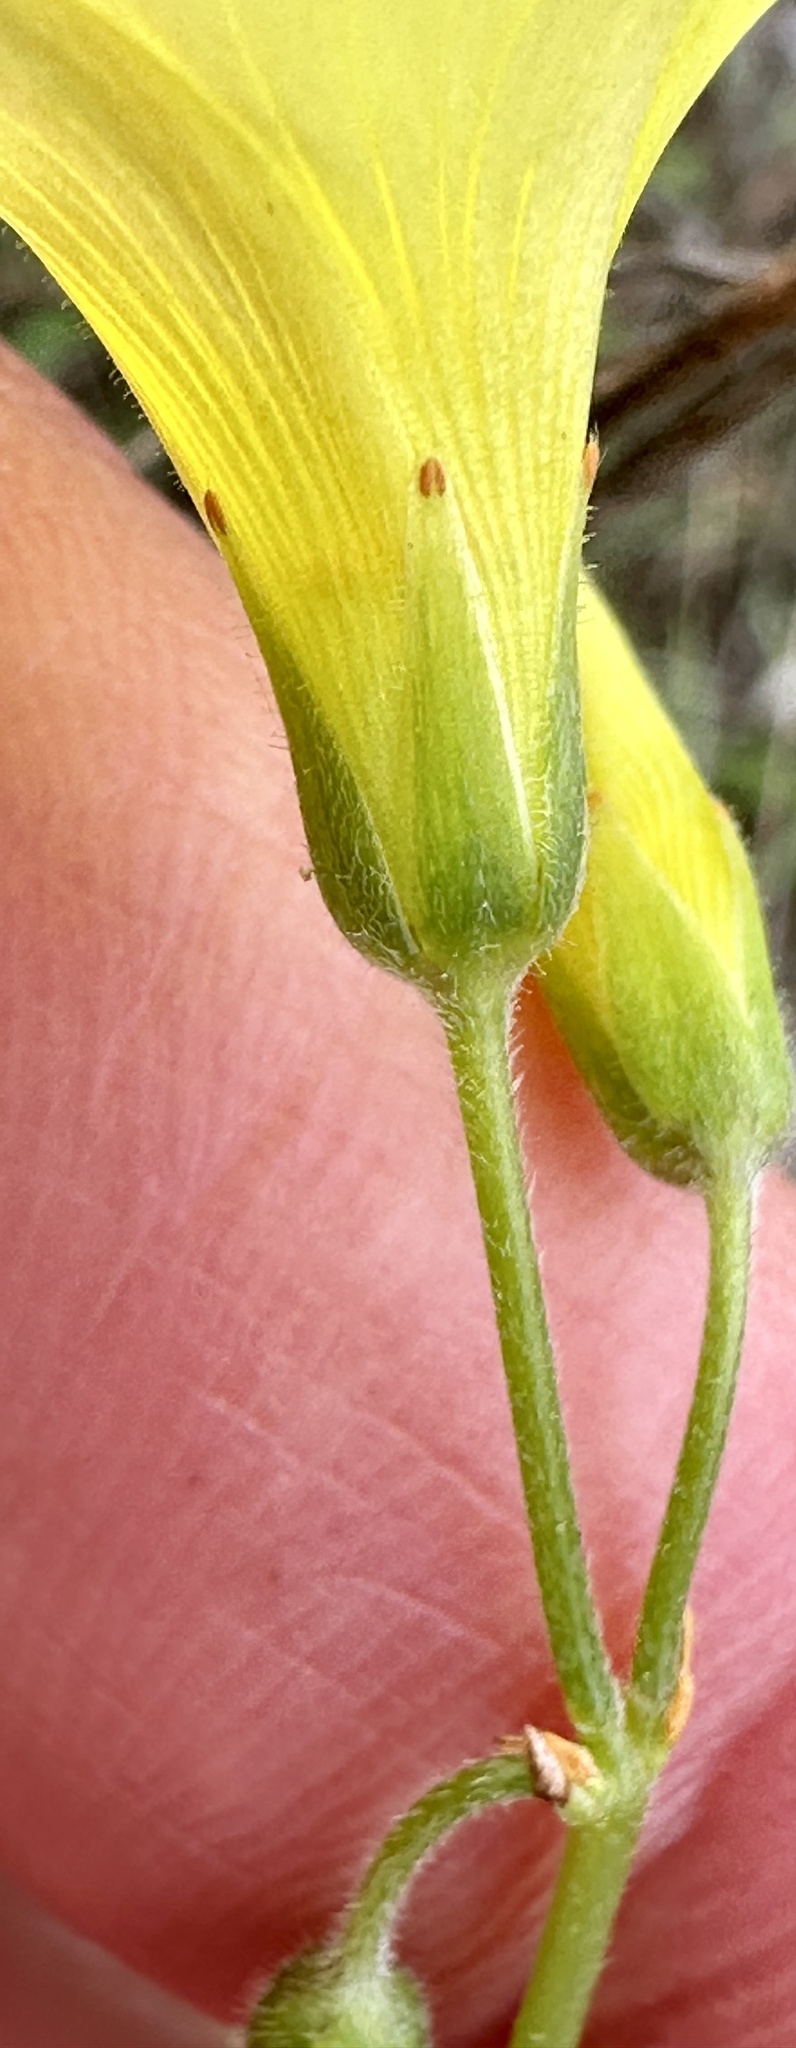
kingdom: Plantae
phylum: Tracheophyta
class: Magnoliopsida
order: Oxalidales
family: Oxalidaceae
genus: Oxalis
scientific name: Oxalis pes-caprae
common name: Bermuda-buttercup
